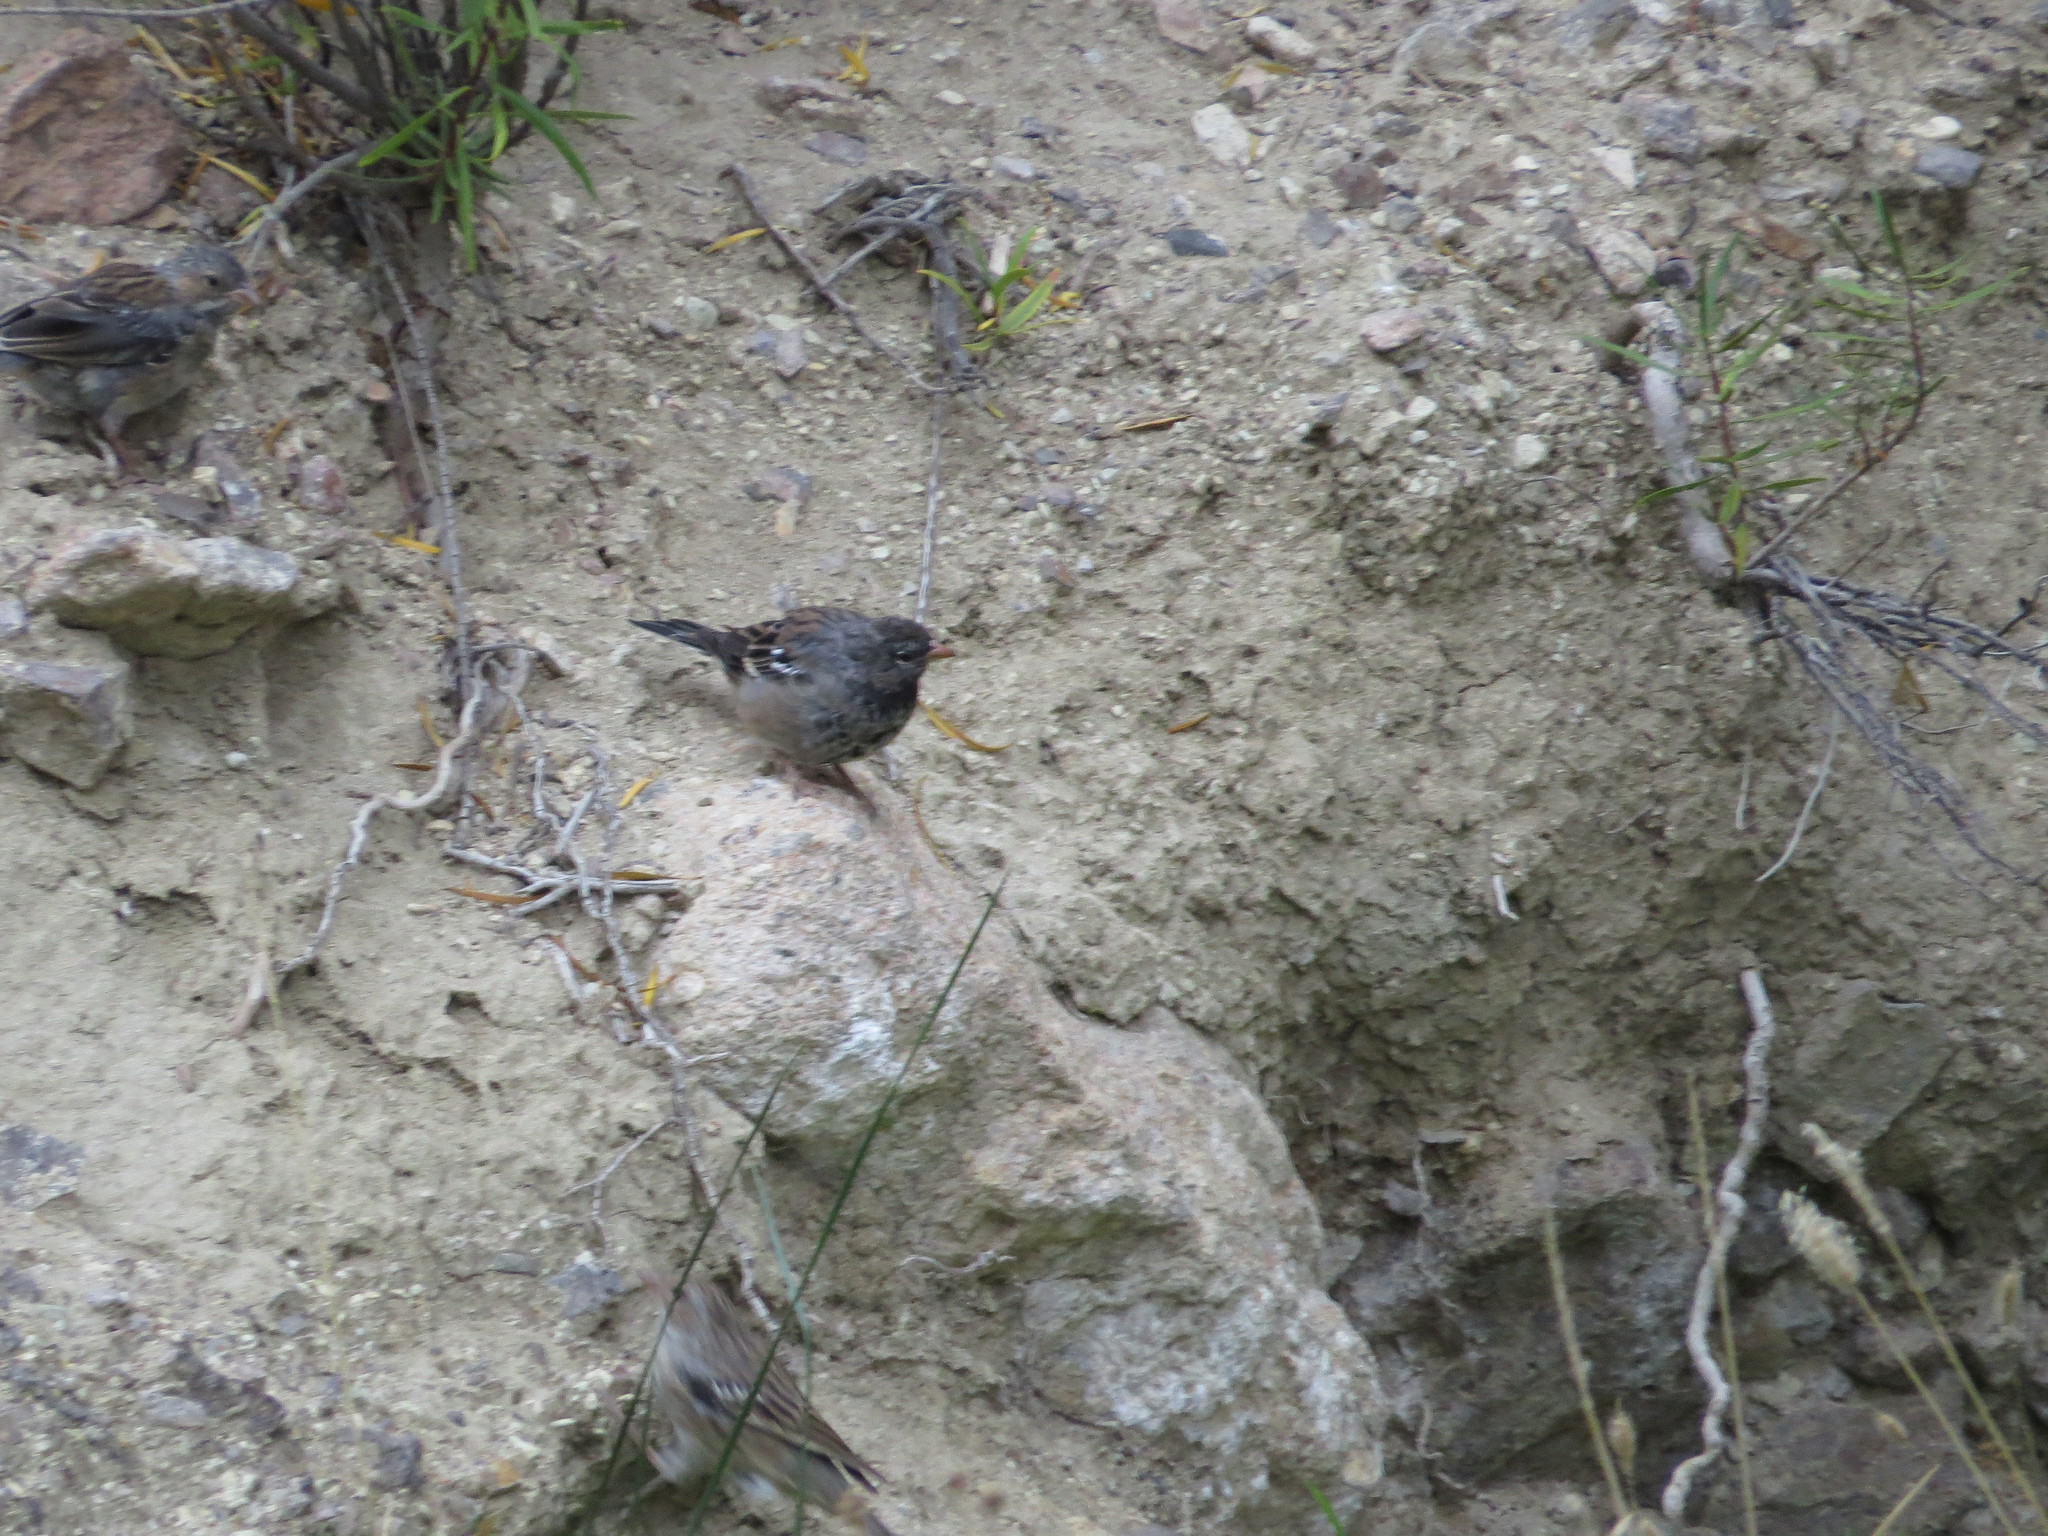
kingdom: Animalia
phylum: Chordata
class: Aves
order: Passeriformes
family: Thraupidae
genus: Rhopospina
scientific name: Rhopospina fruticeti
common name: Mourning sierra finch
